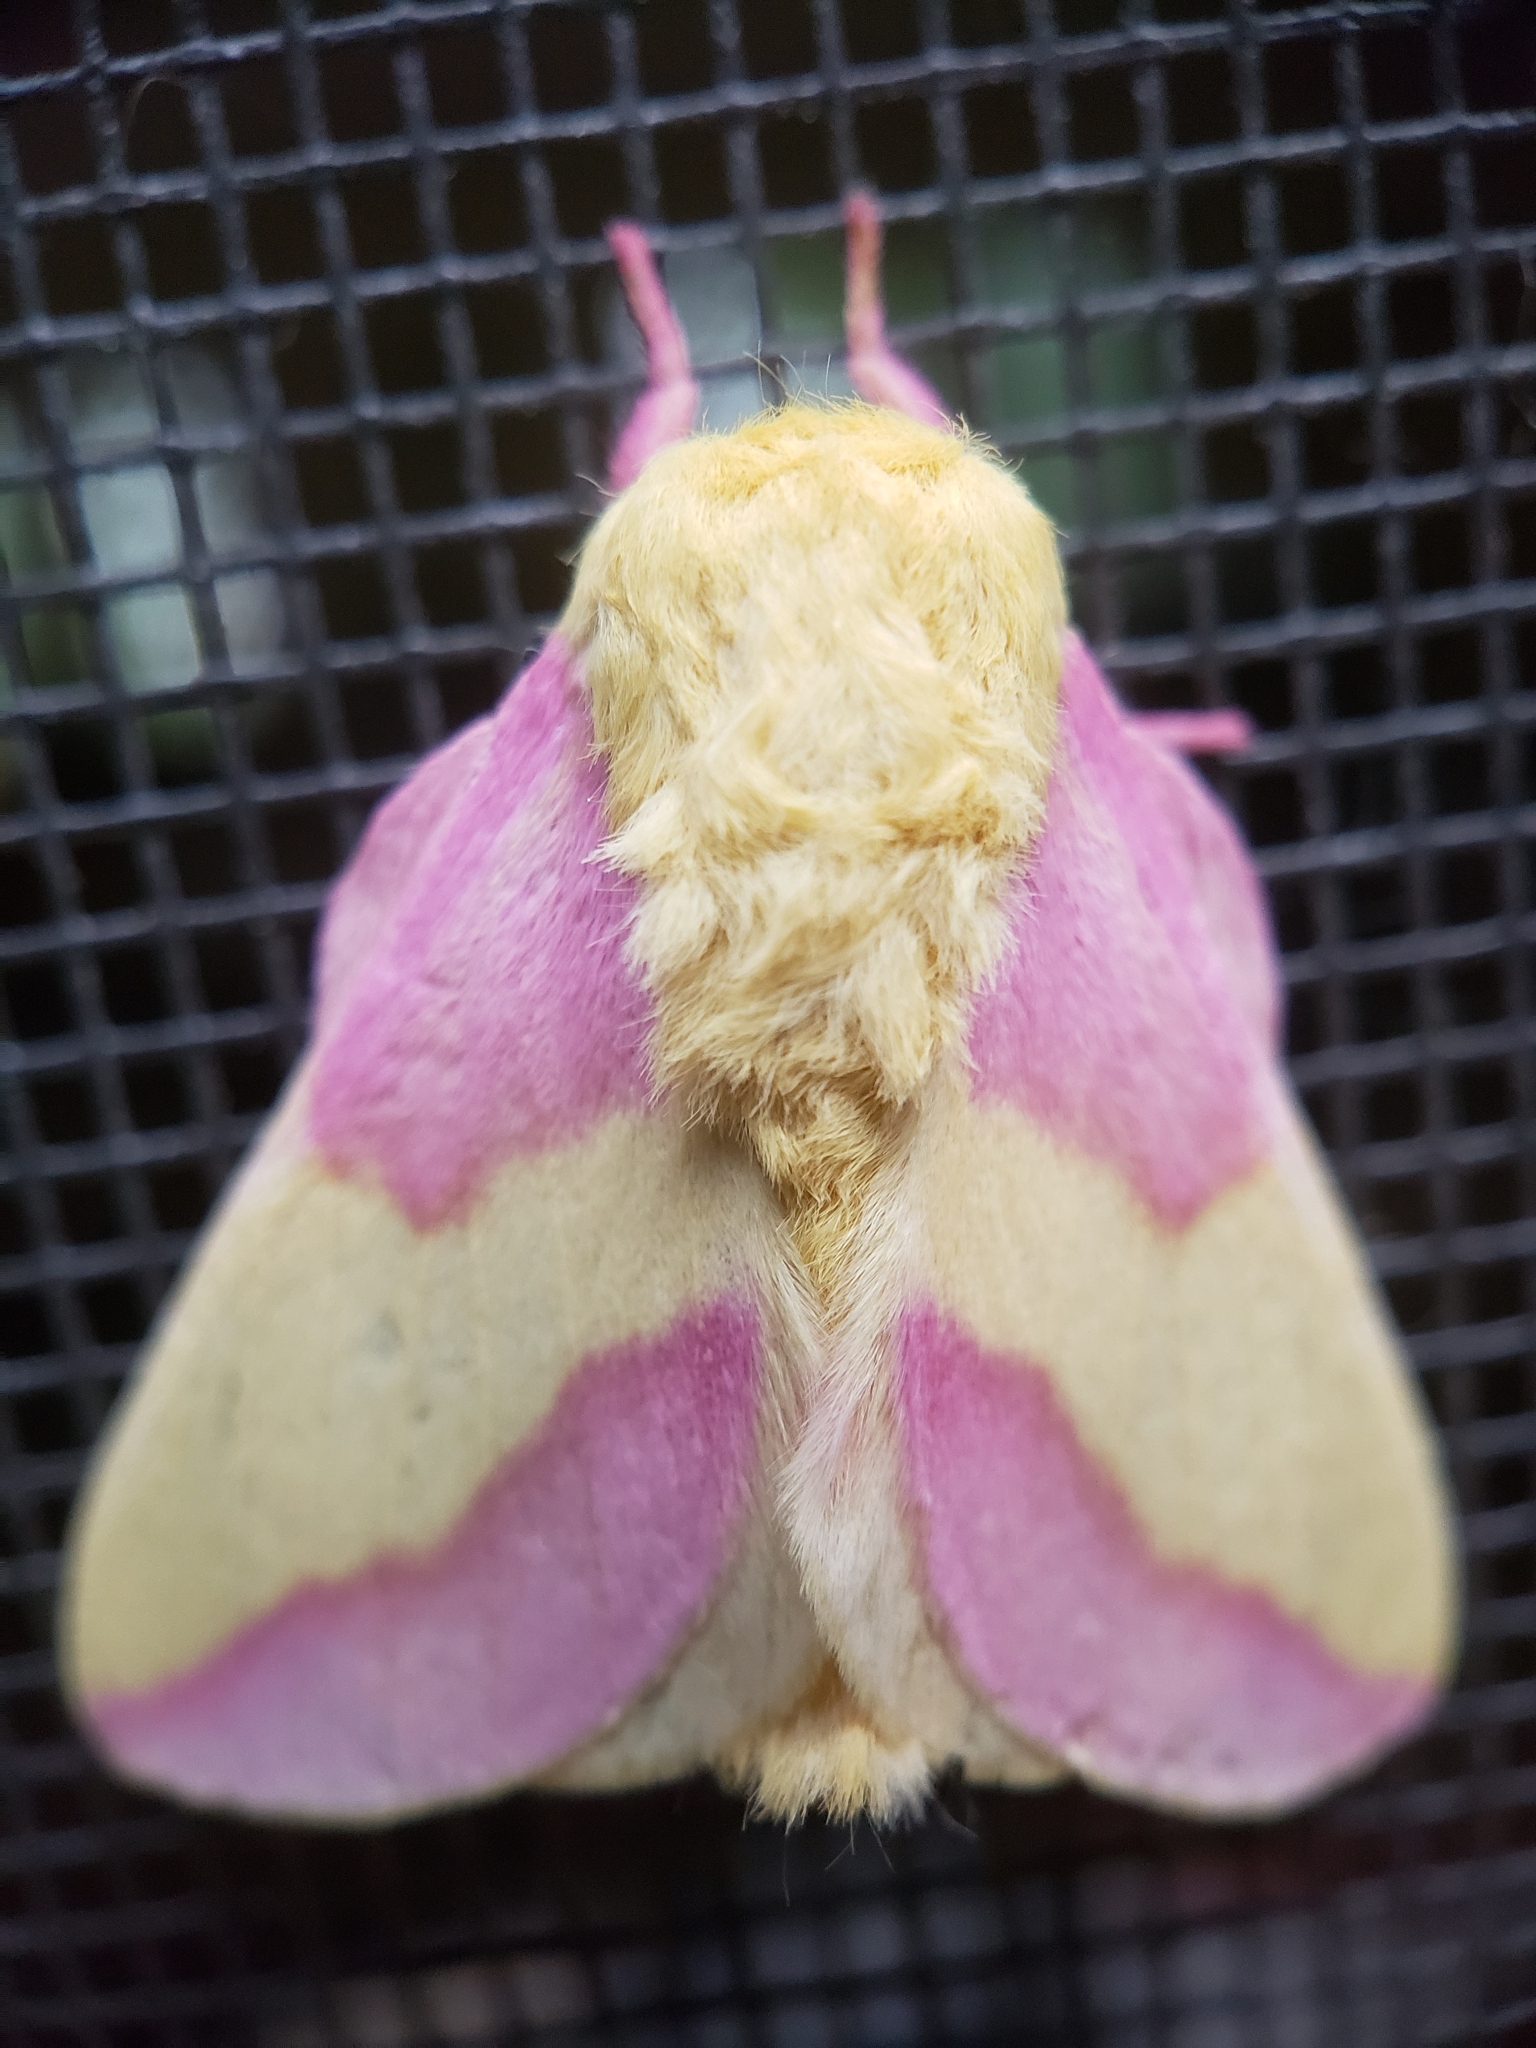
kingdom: Animalia
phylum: Arthropoda
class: Insecta
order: Lepidoptera
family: Saturniidae
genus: Dryocampa
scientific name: Dryocampa rubicunda
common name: Rosy maple moth
